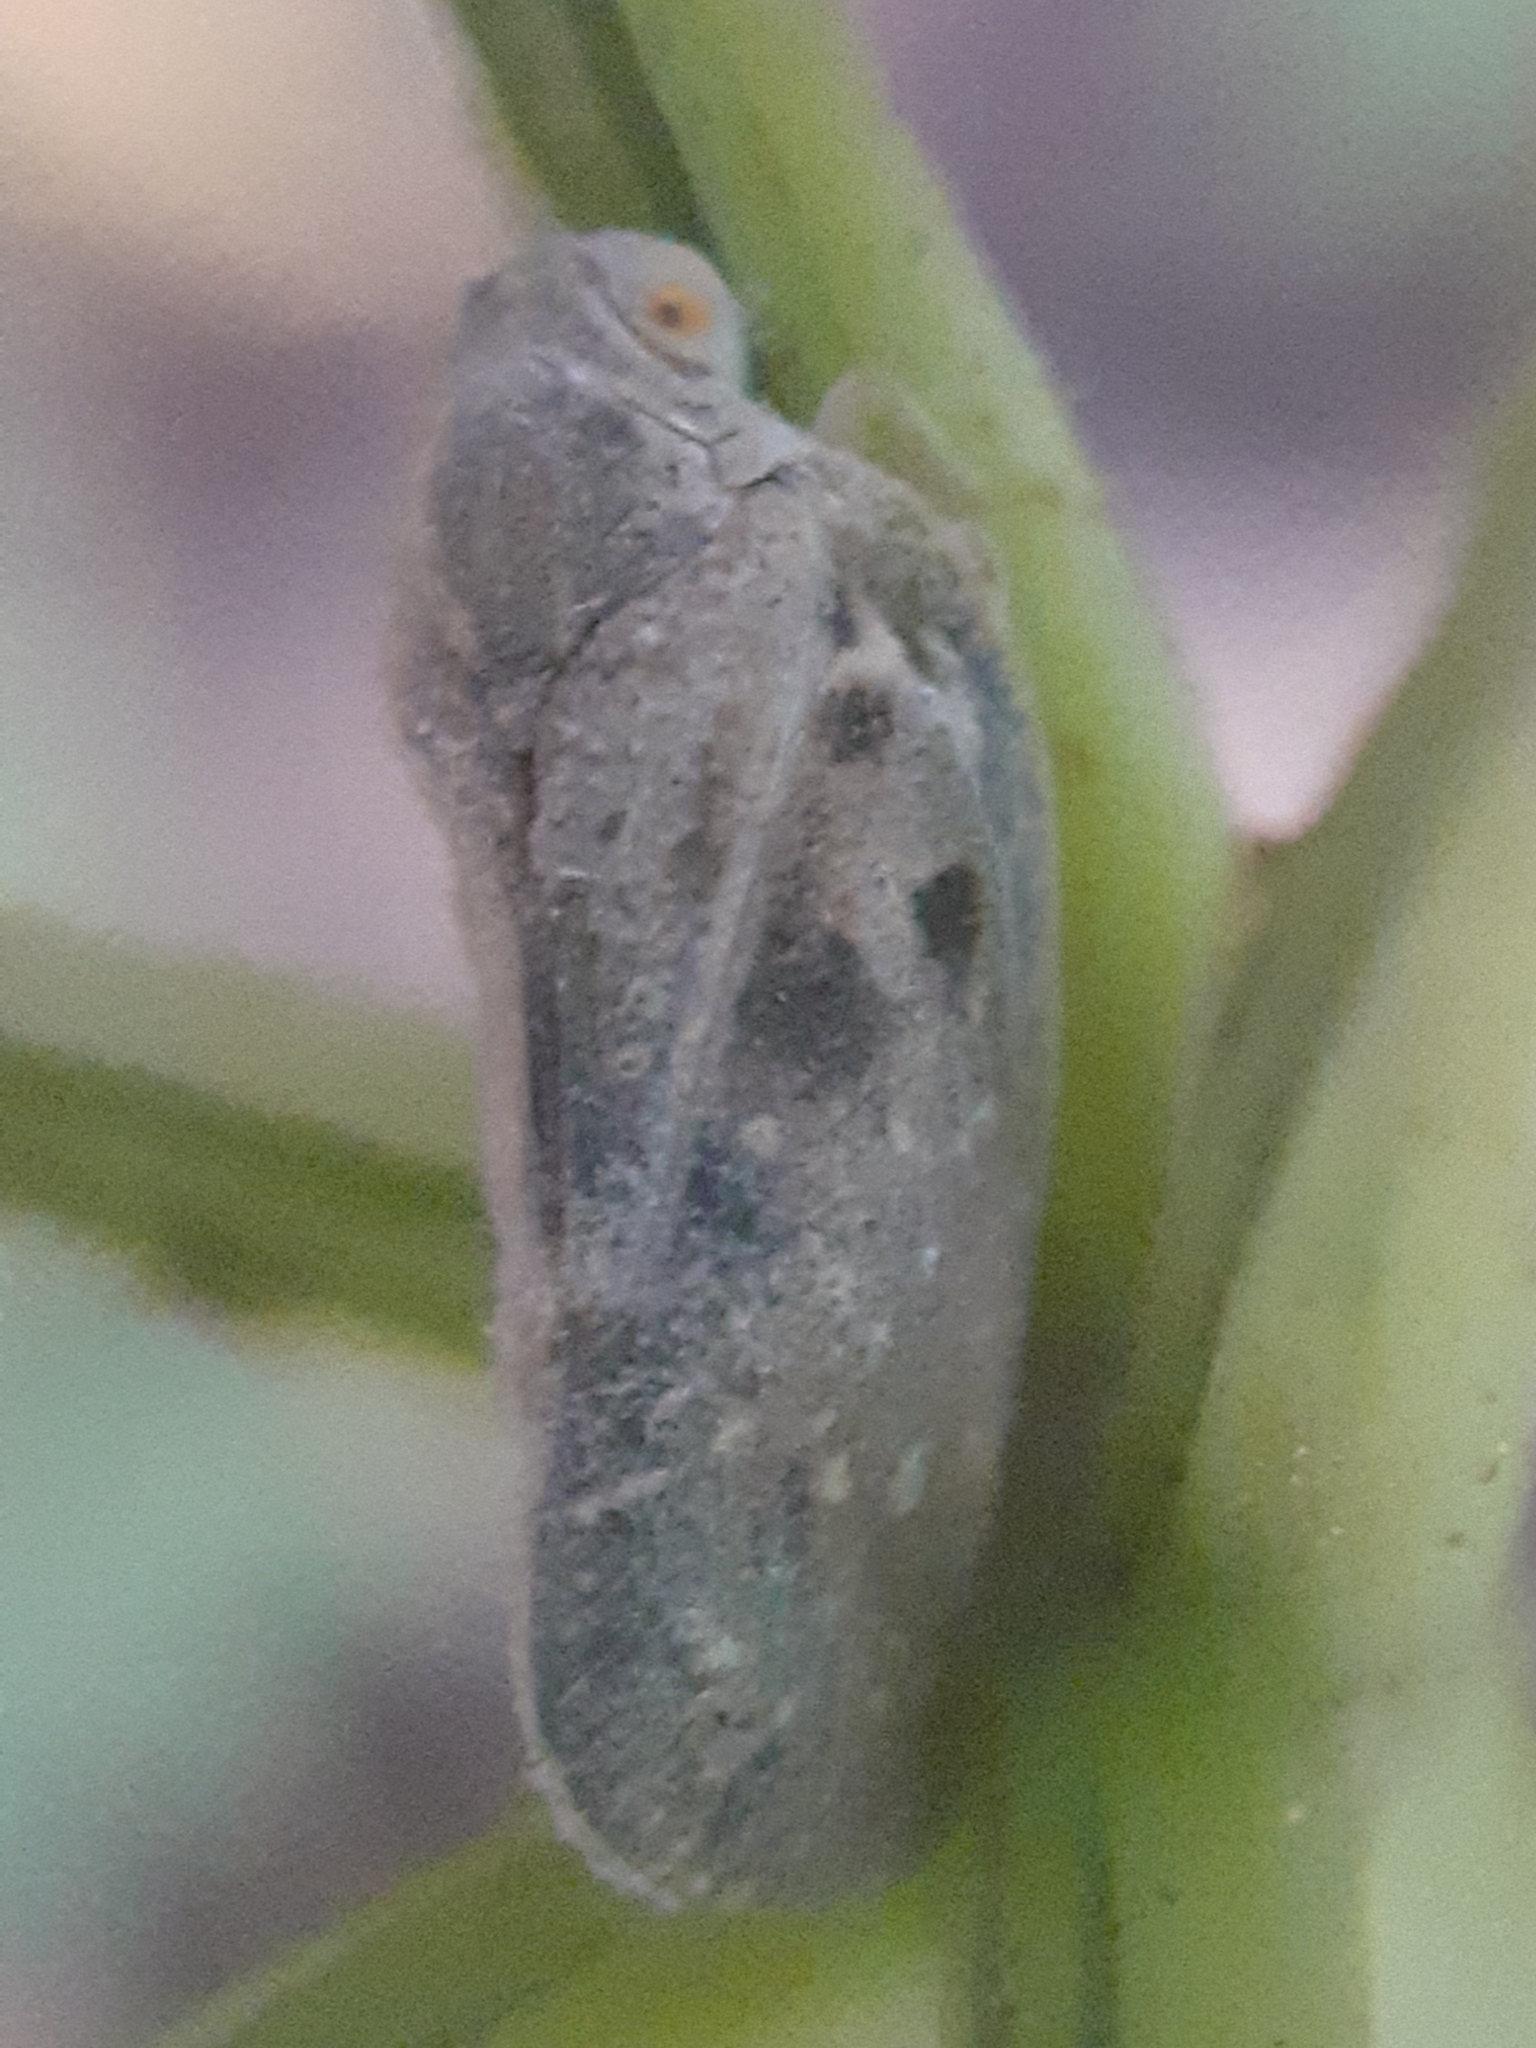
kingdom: Animalia
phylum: Arthropoda
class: Insecta
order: Hemiptera
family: Flatidae
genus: Metcalfa
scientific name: Metcalfa pruinosa
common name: Citrus flatid planthopper
